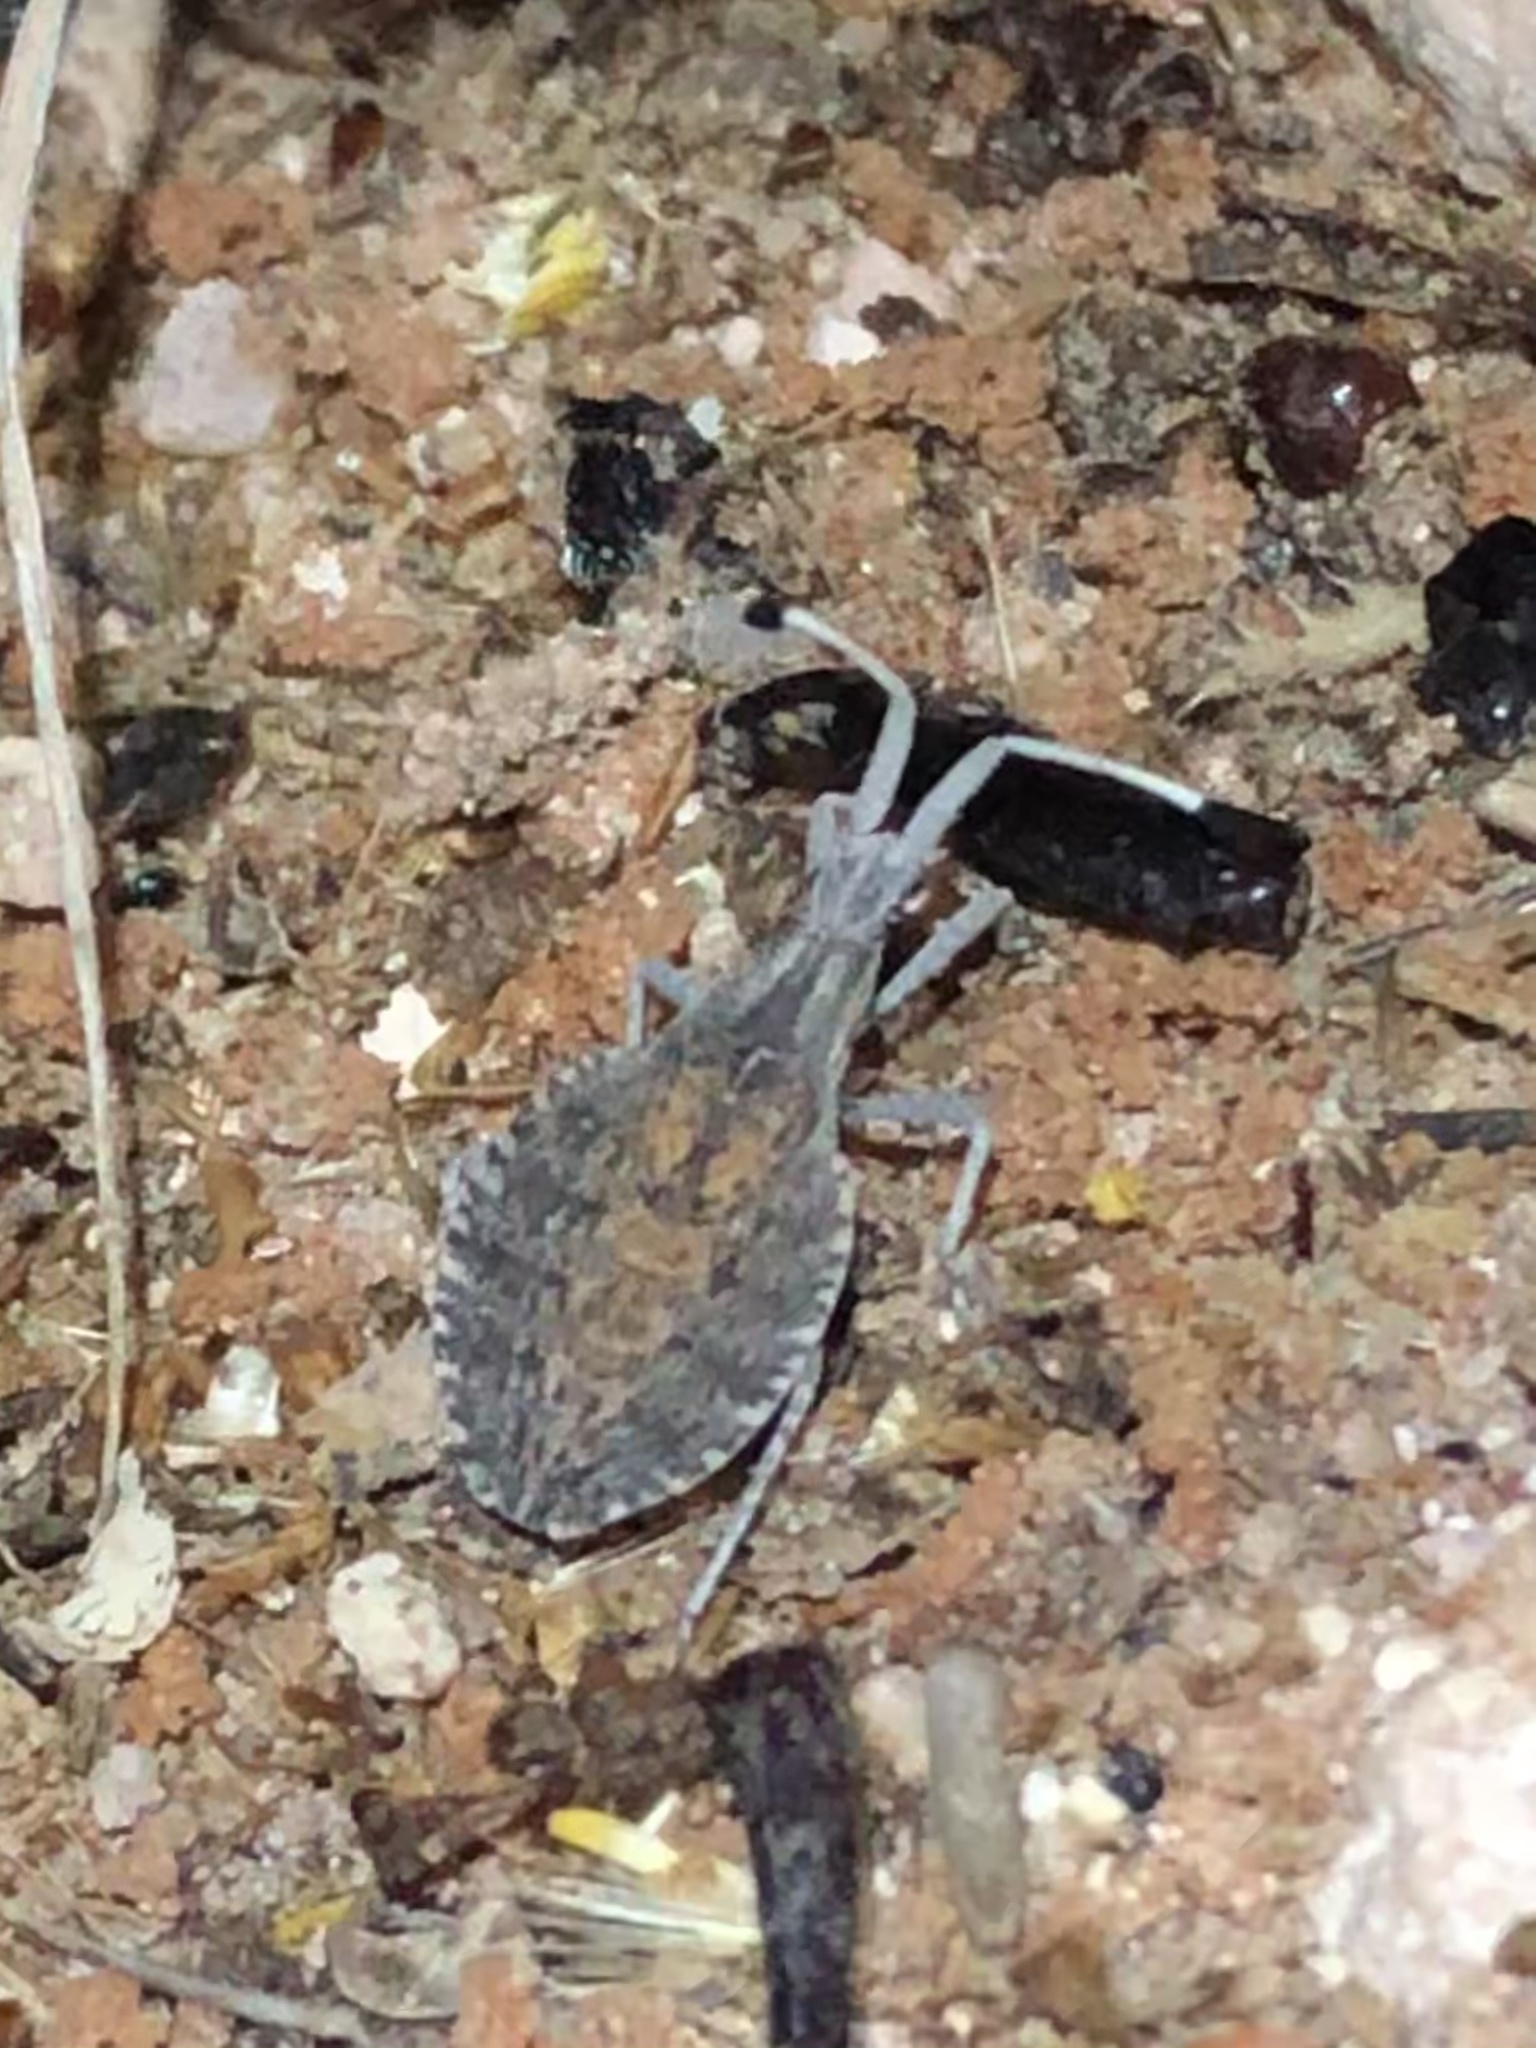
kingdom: Animalia
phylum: Arthropoda
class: Insecta
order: Hemiptera
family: Coreidae
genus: Nisoscolopocerus
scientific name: Nisoscolopocerus apiculatus
